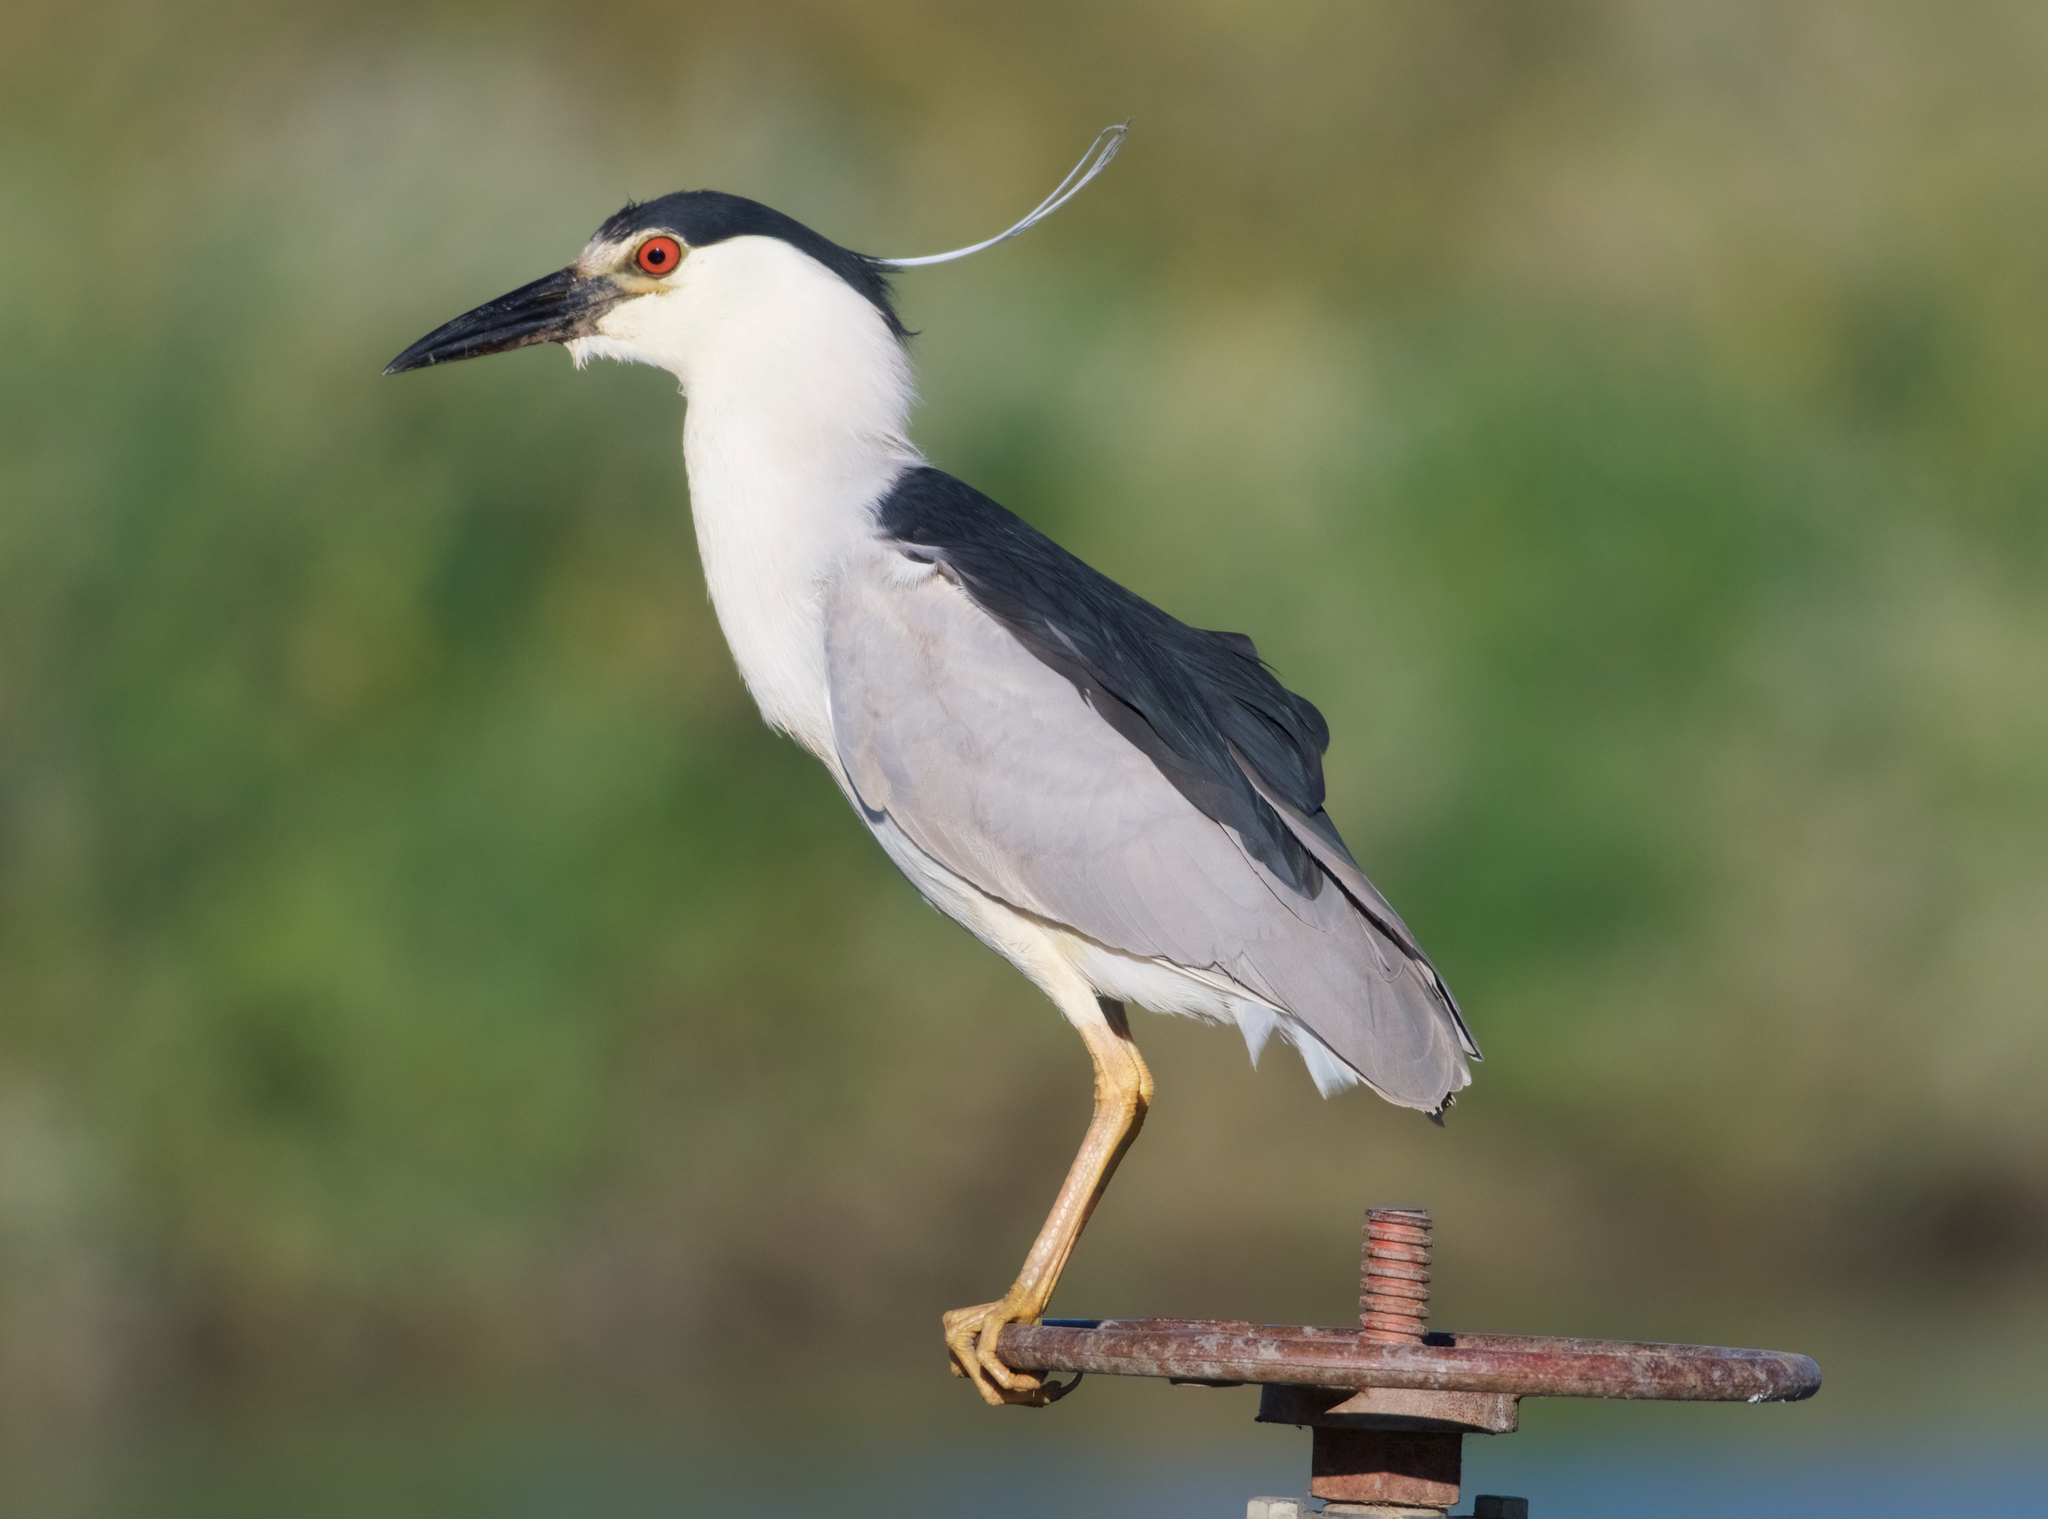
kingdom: Animalia
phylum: Chordata
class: Aves
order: Pelecaniformes
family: Ardeidae
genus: Nycticorax
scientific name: Nycticorax nycticorax
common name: Black-crowned night heron
